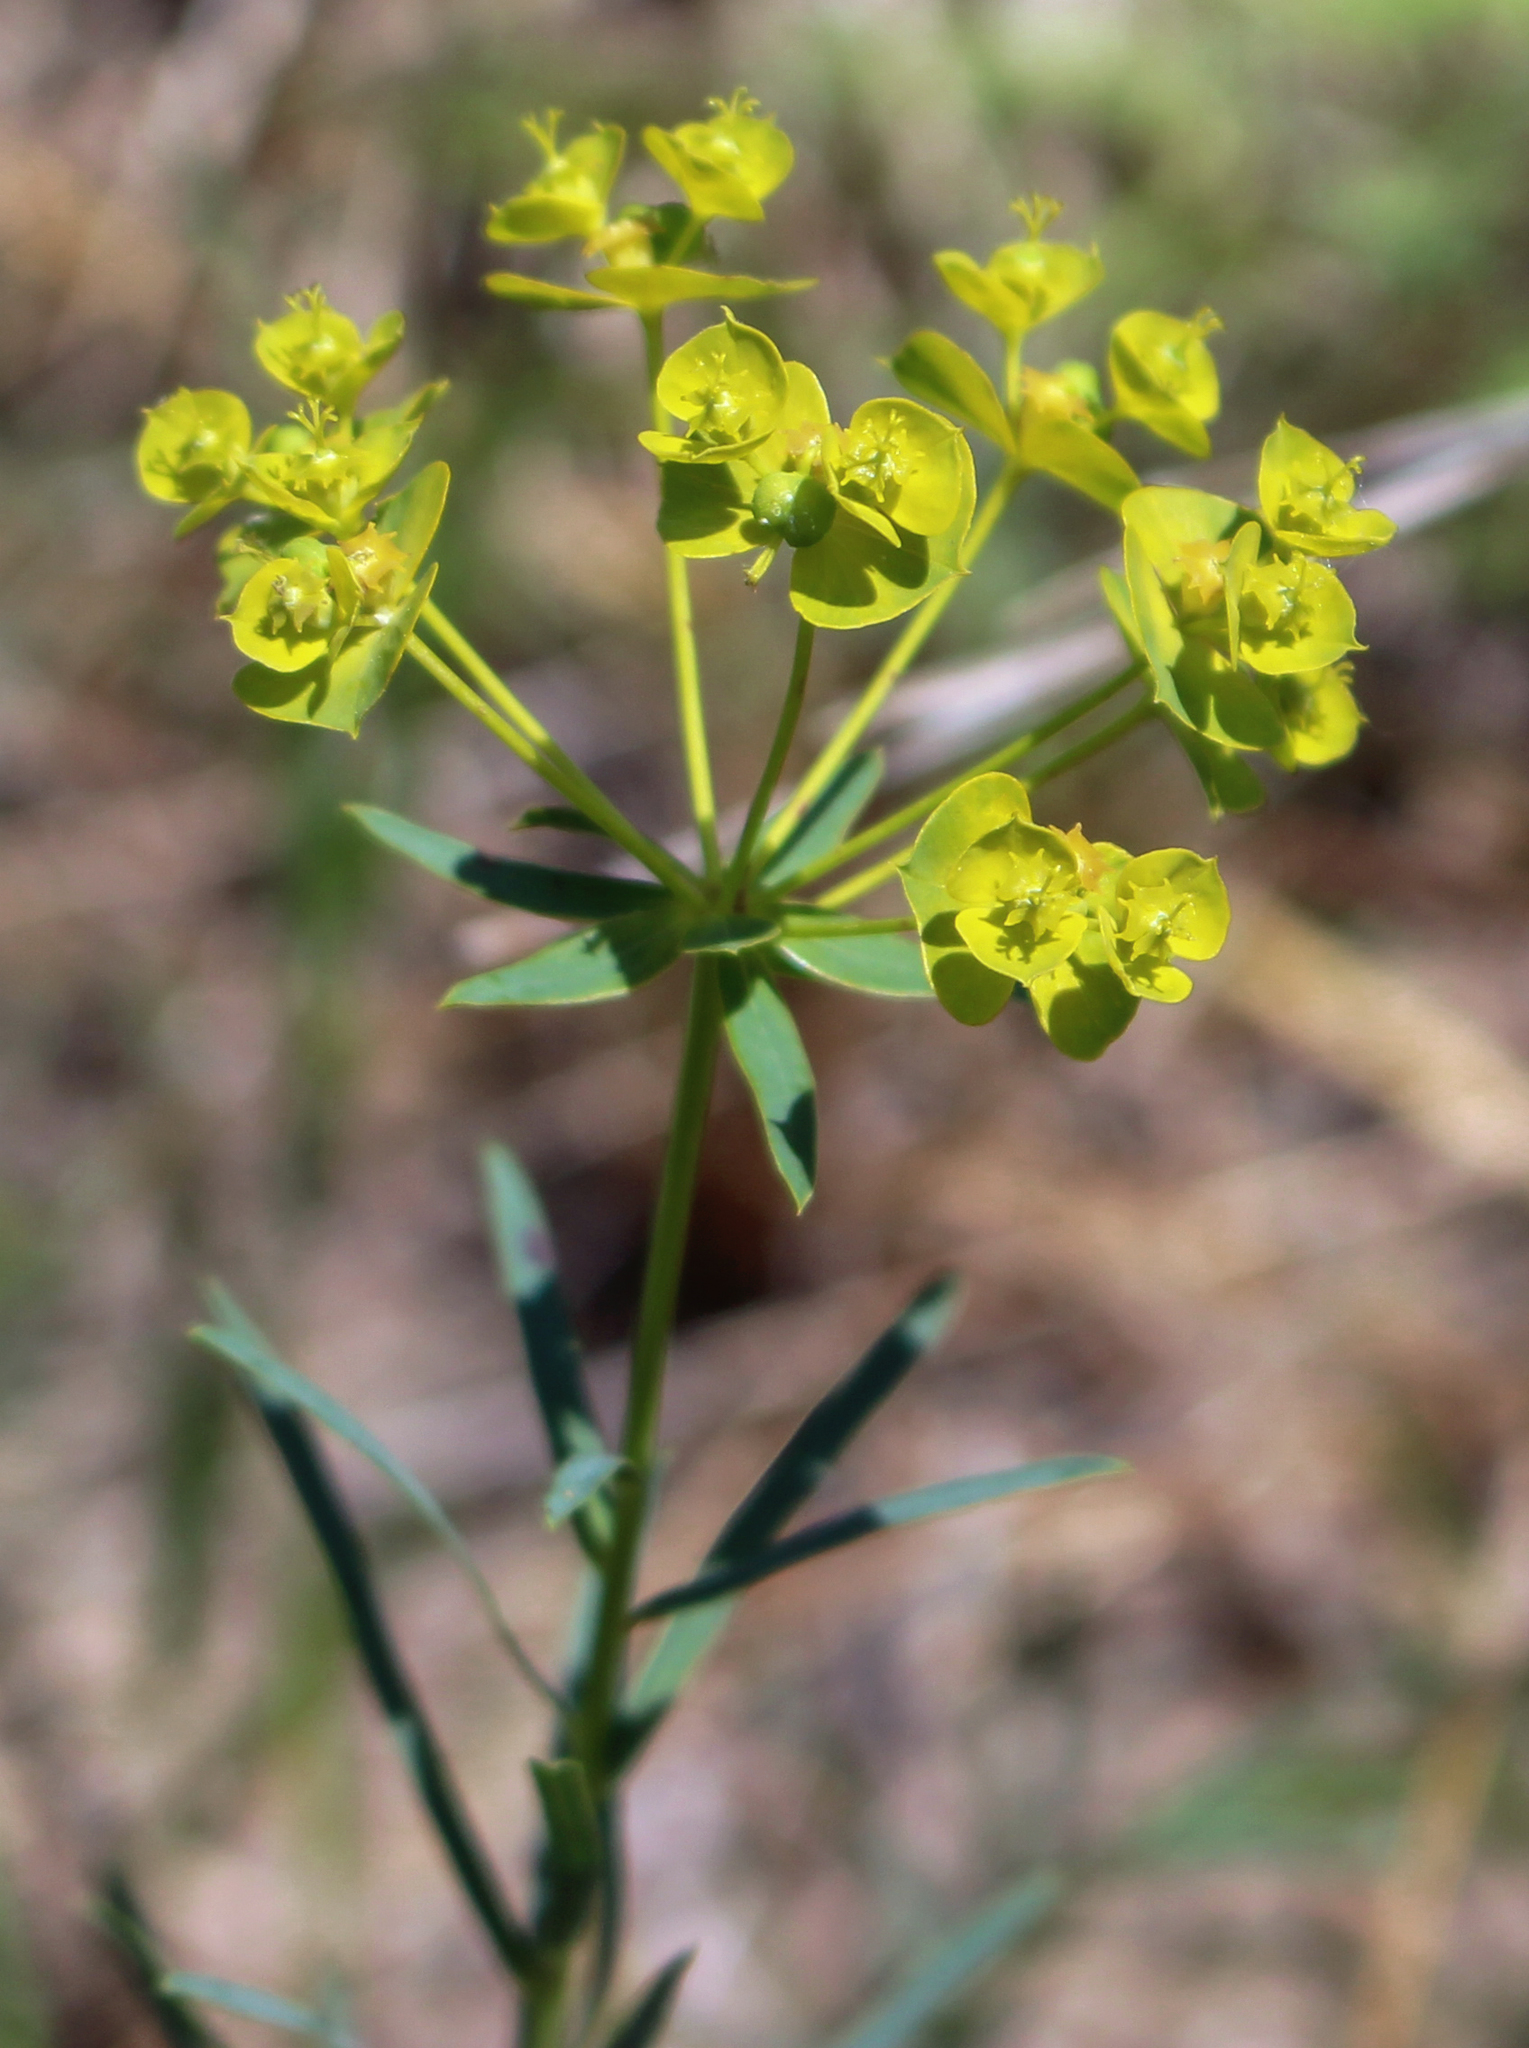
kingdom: Plantae
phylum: Tracheophyta
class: Magnoliopsida
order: Malpighiales
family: Euphorbiaceae
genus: Euphorbia
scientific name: Euphorbia virgata
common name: Leafy spurge
